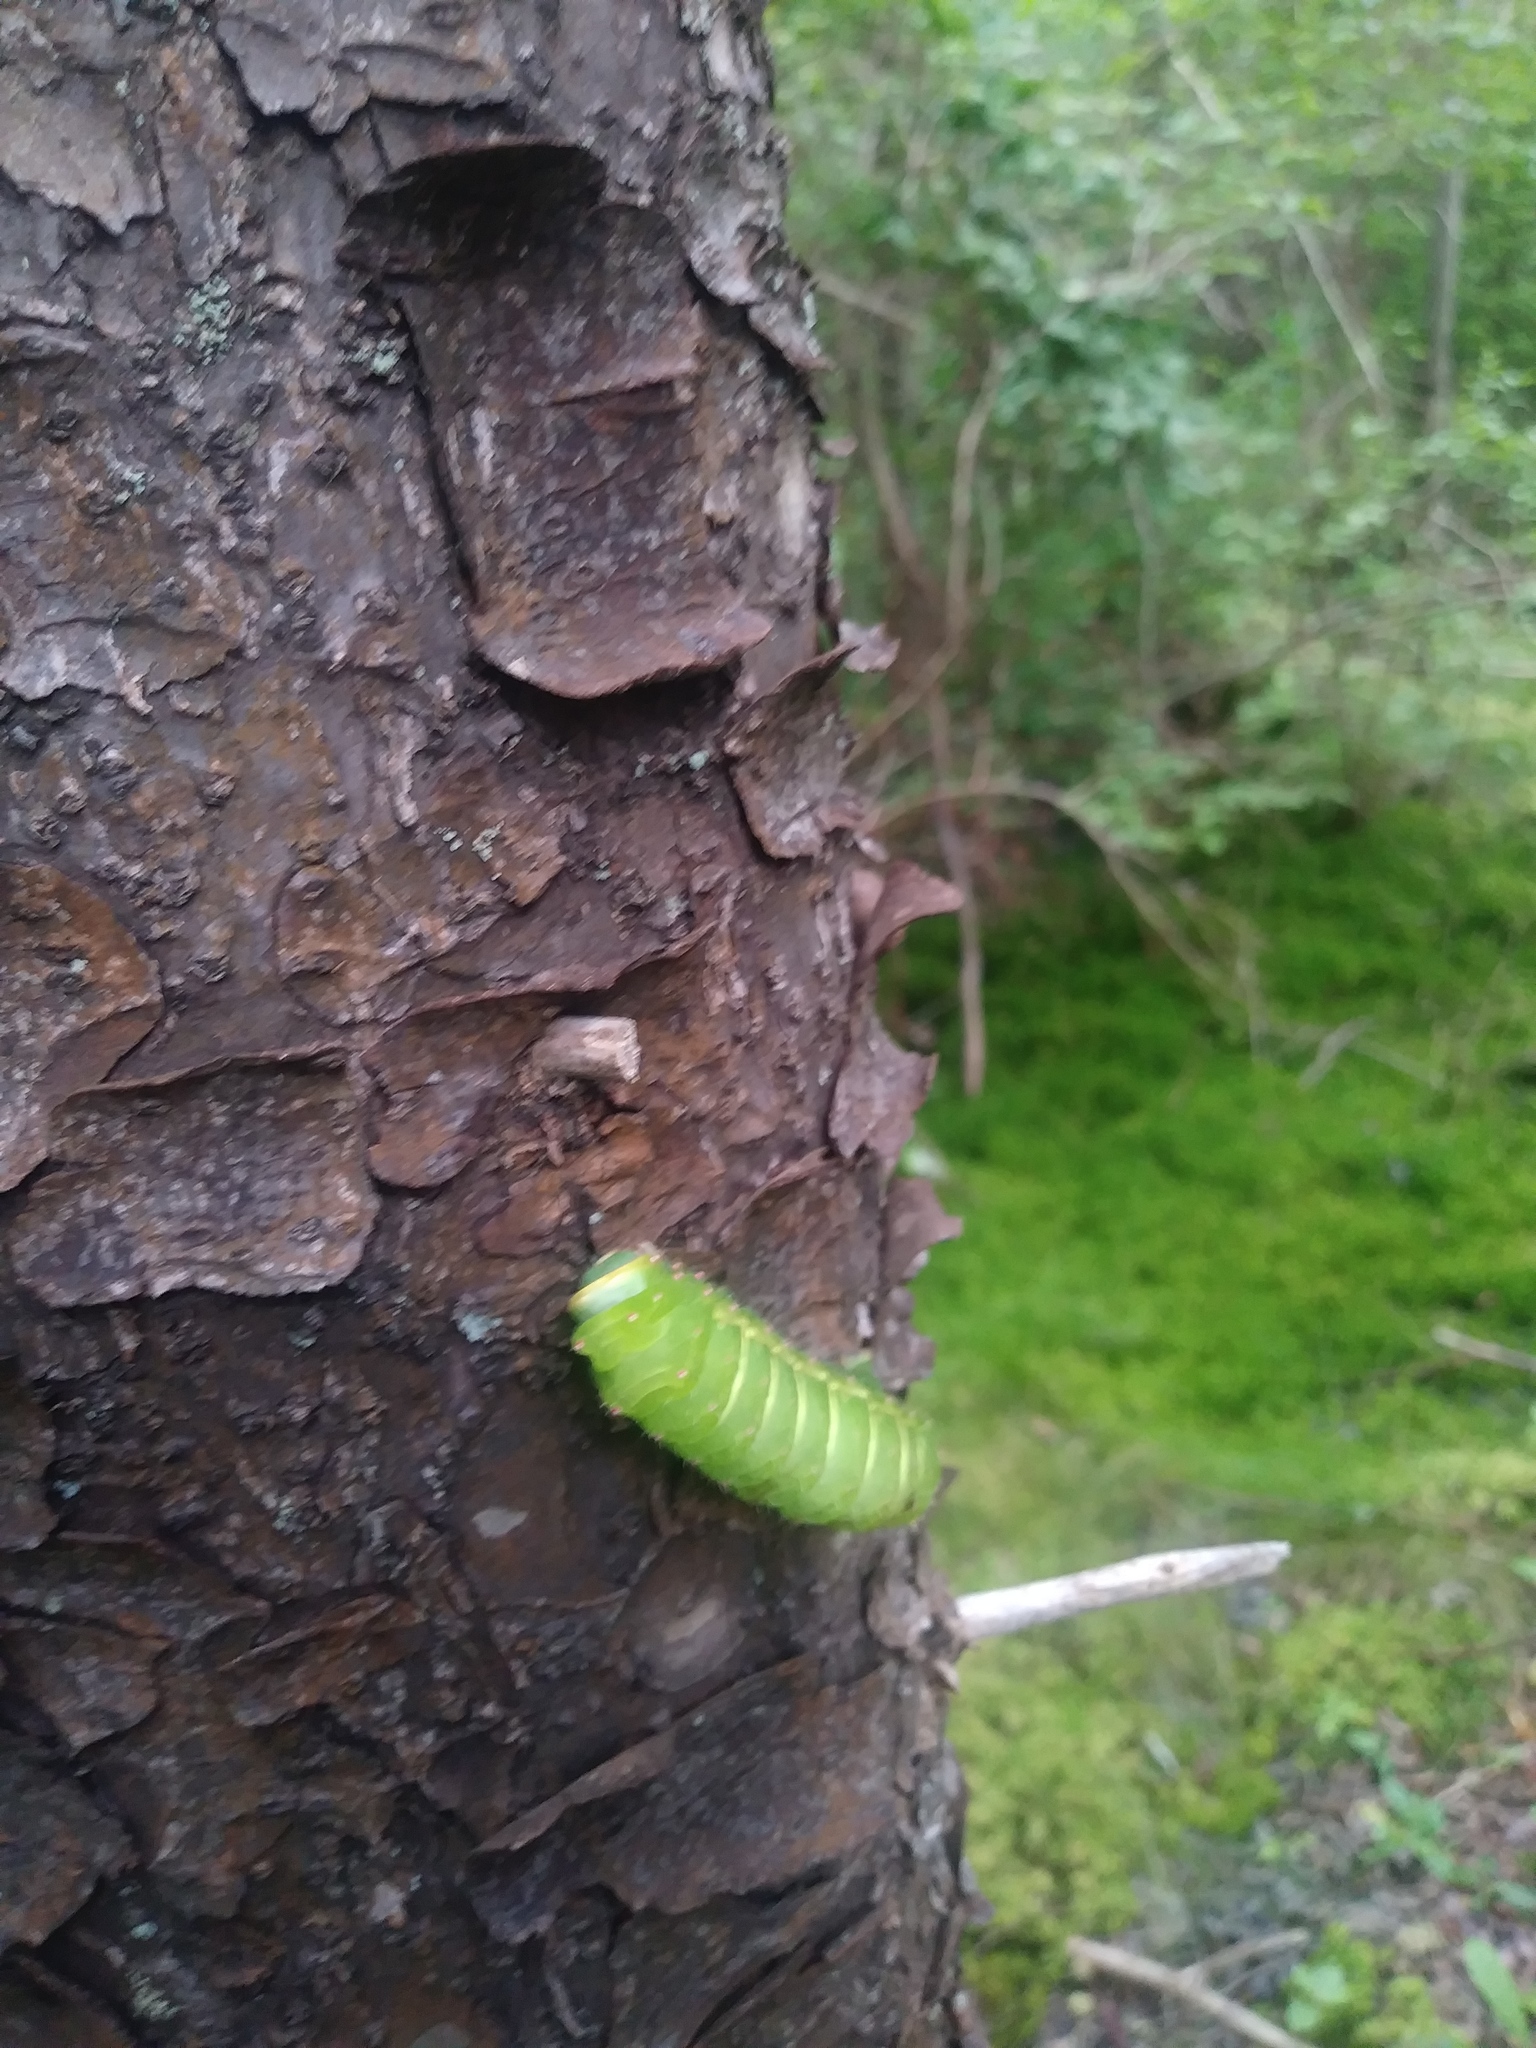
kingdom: Animalia
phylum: Arthropoda
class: Insecta
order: Lepidoptera
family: Saturniidae
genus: Actias
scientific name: Actias luna
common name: Luna moth
